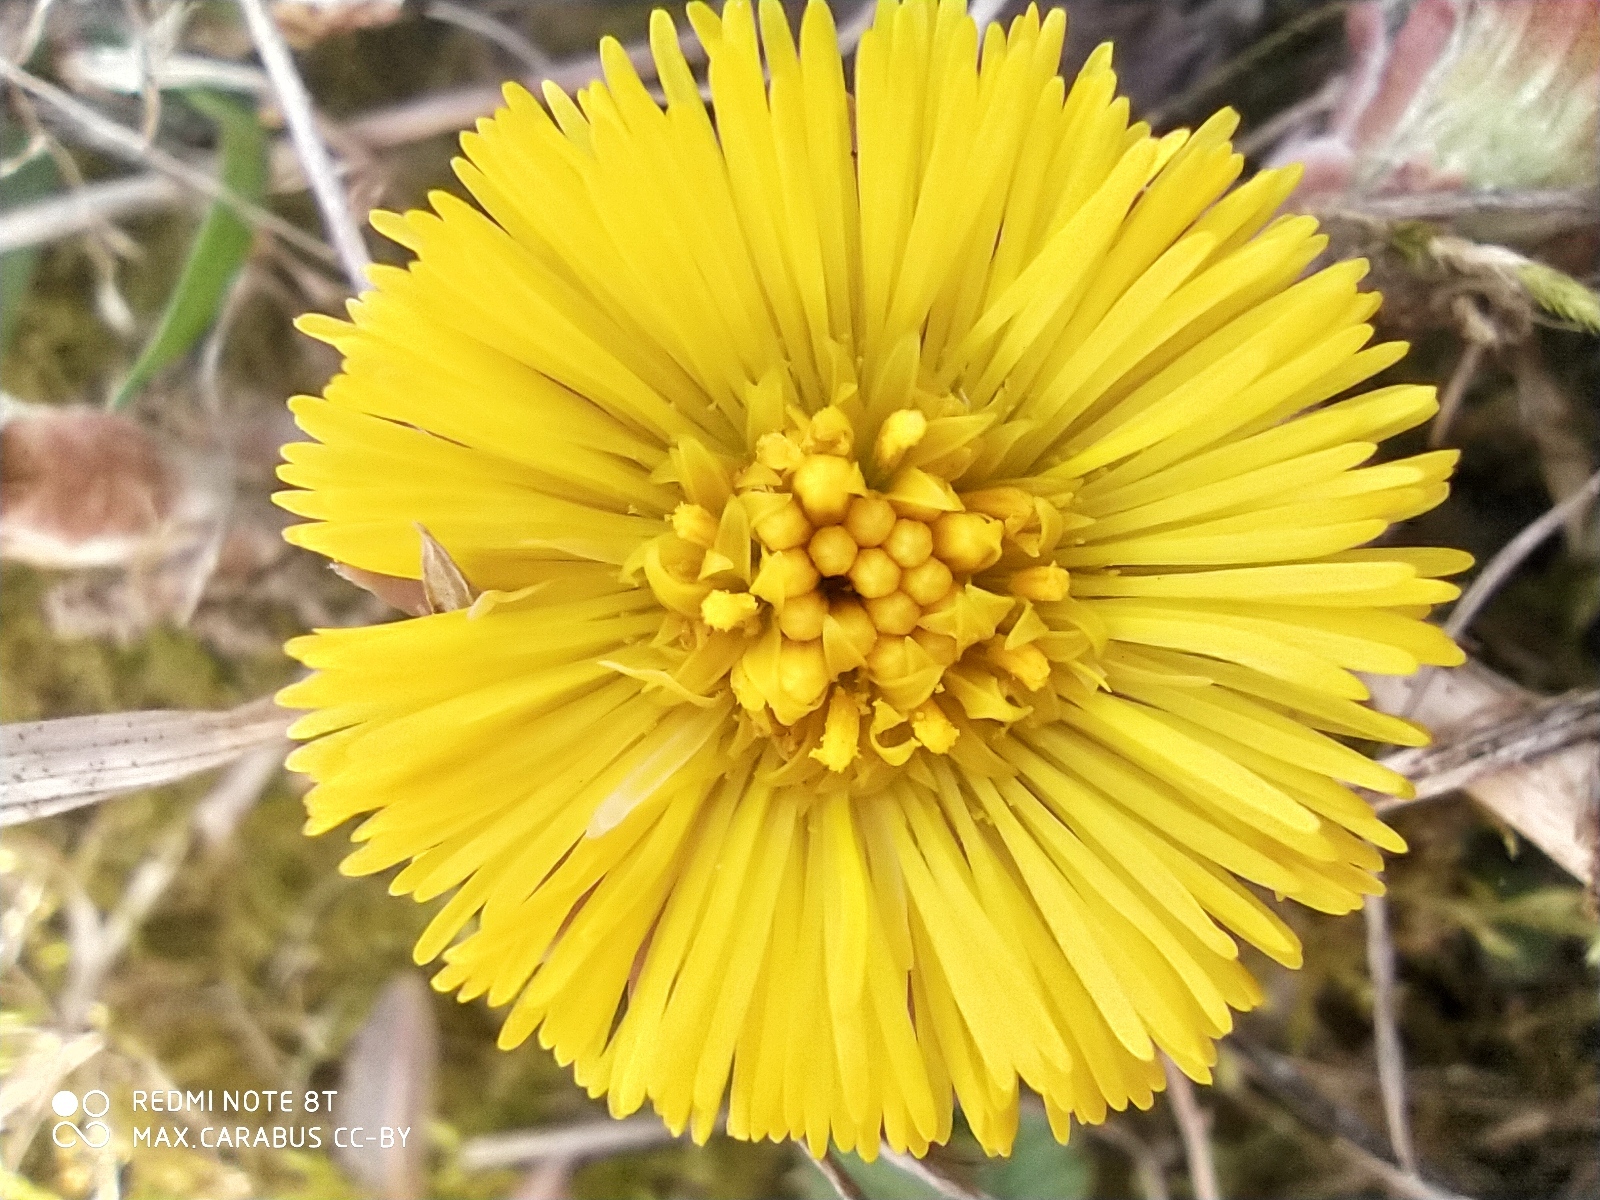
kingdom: Plantae
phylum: Tracheophyta
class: Magnoliopsida
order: Asterales
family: Asteraceae
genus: Tussilago
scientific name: Tussilago farfara
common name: Coltsfoot
